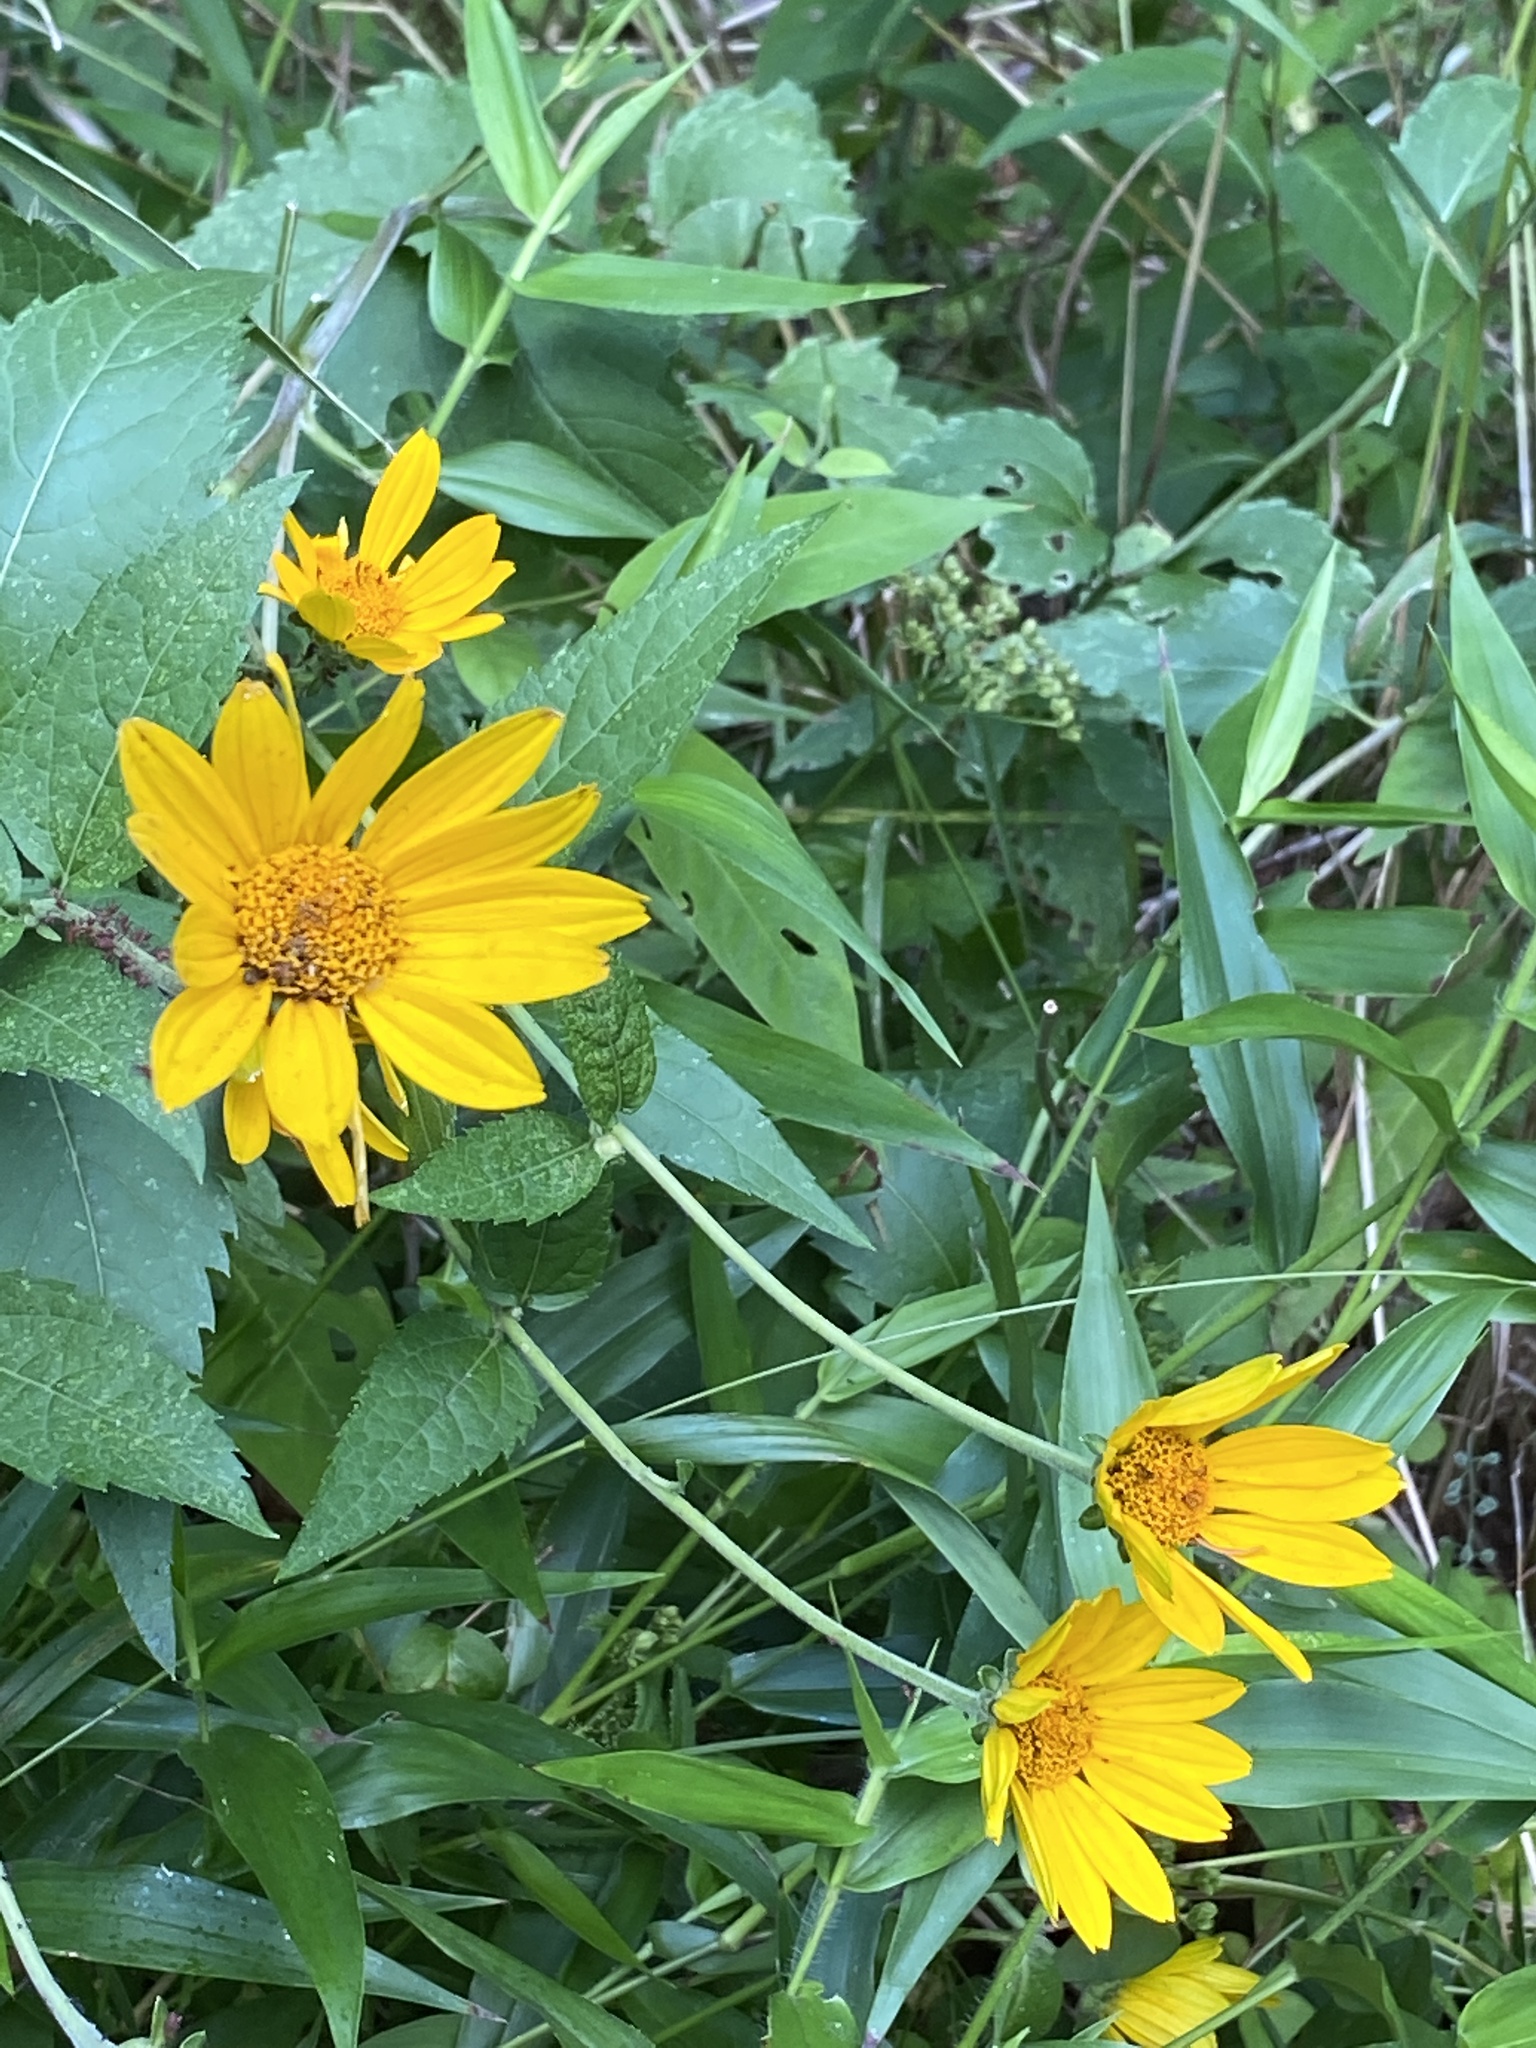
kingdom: Plantae
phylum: Tracheophyta
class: Magnoliopsida
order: Asterales
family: Asteraceae
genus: Heliopsis
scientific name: Heliopsis helianthoides
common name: False sunflower
